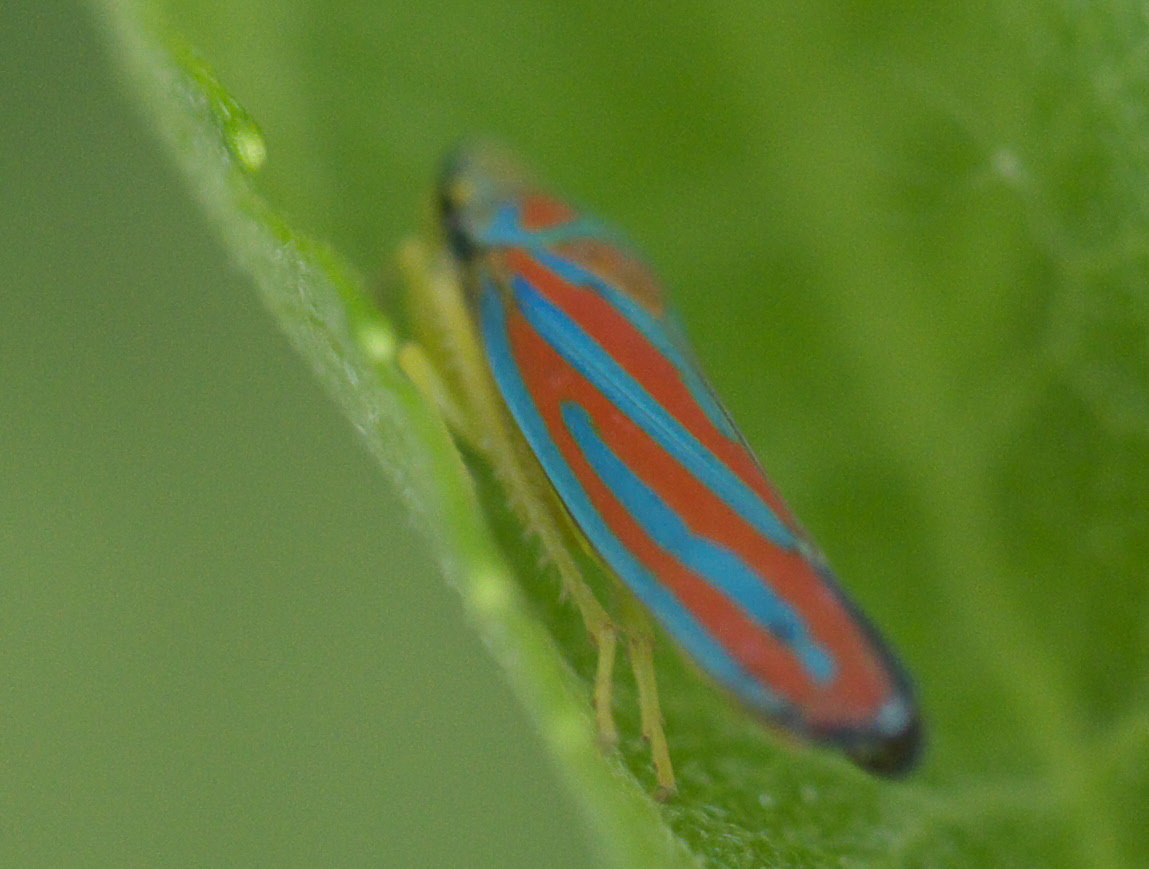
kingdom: Animalia
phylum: Arthropoda
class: Insecta
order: Hemiptera
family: Cicadellidae
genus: Graphocephala
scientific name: Graphocephala coccinea
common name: Candy-striped leafhopper
